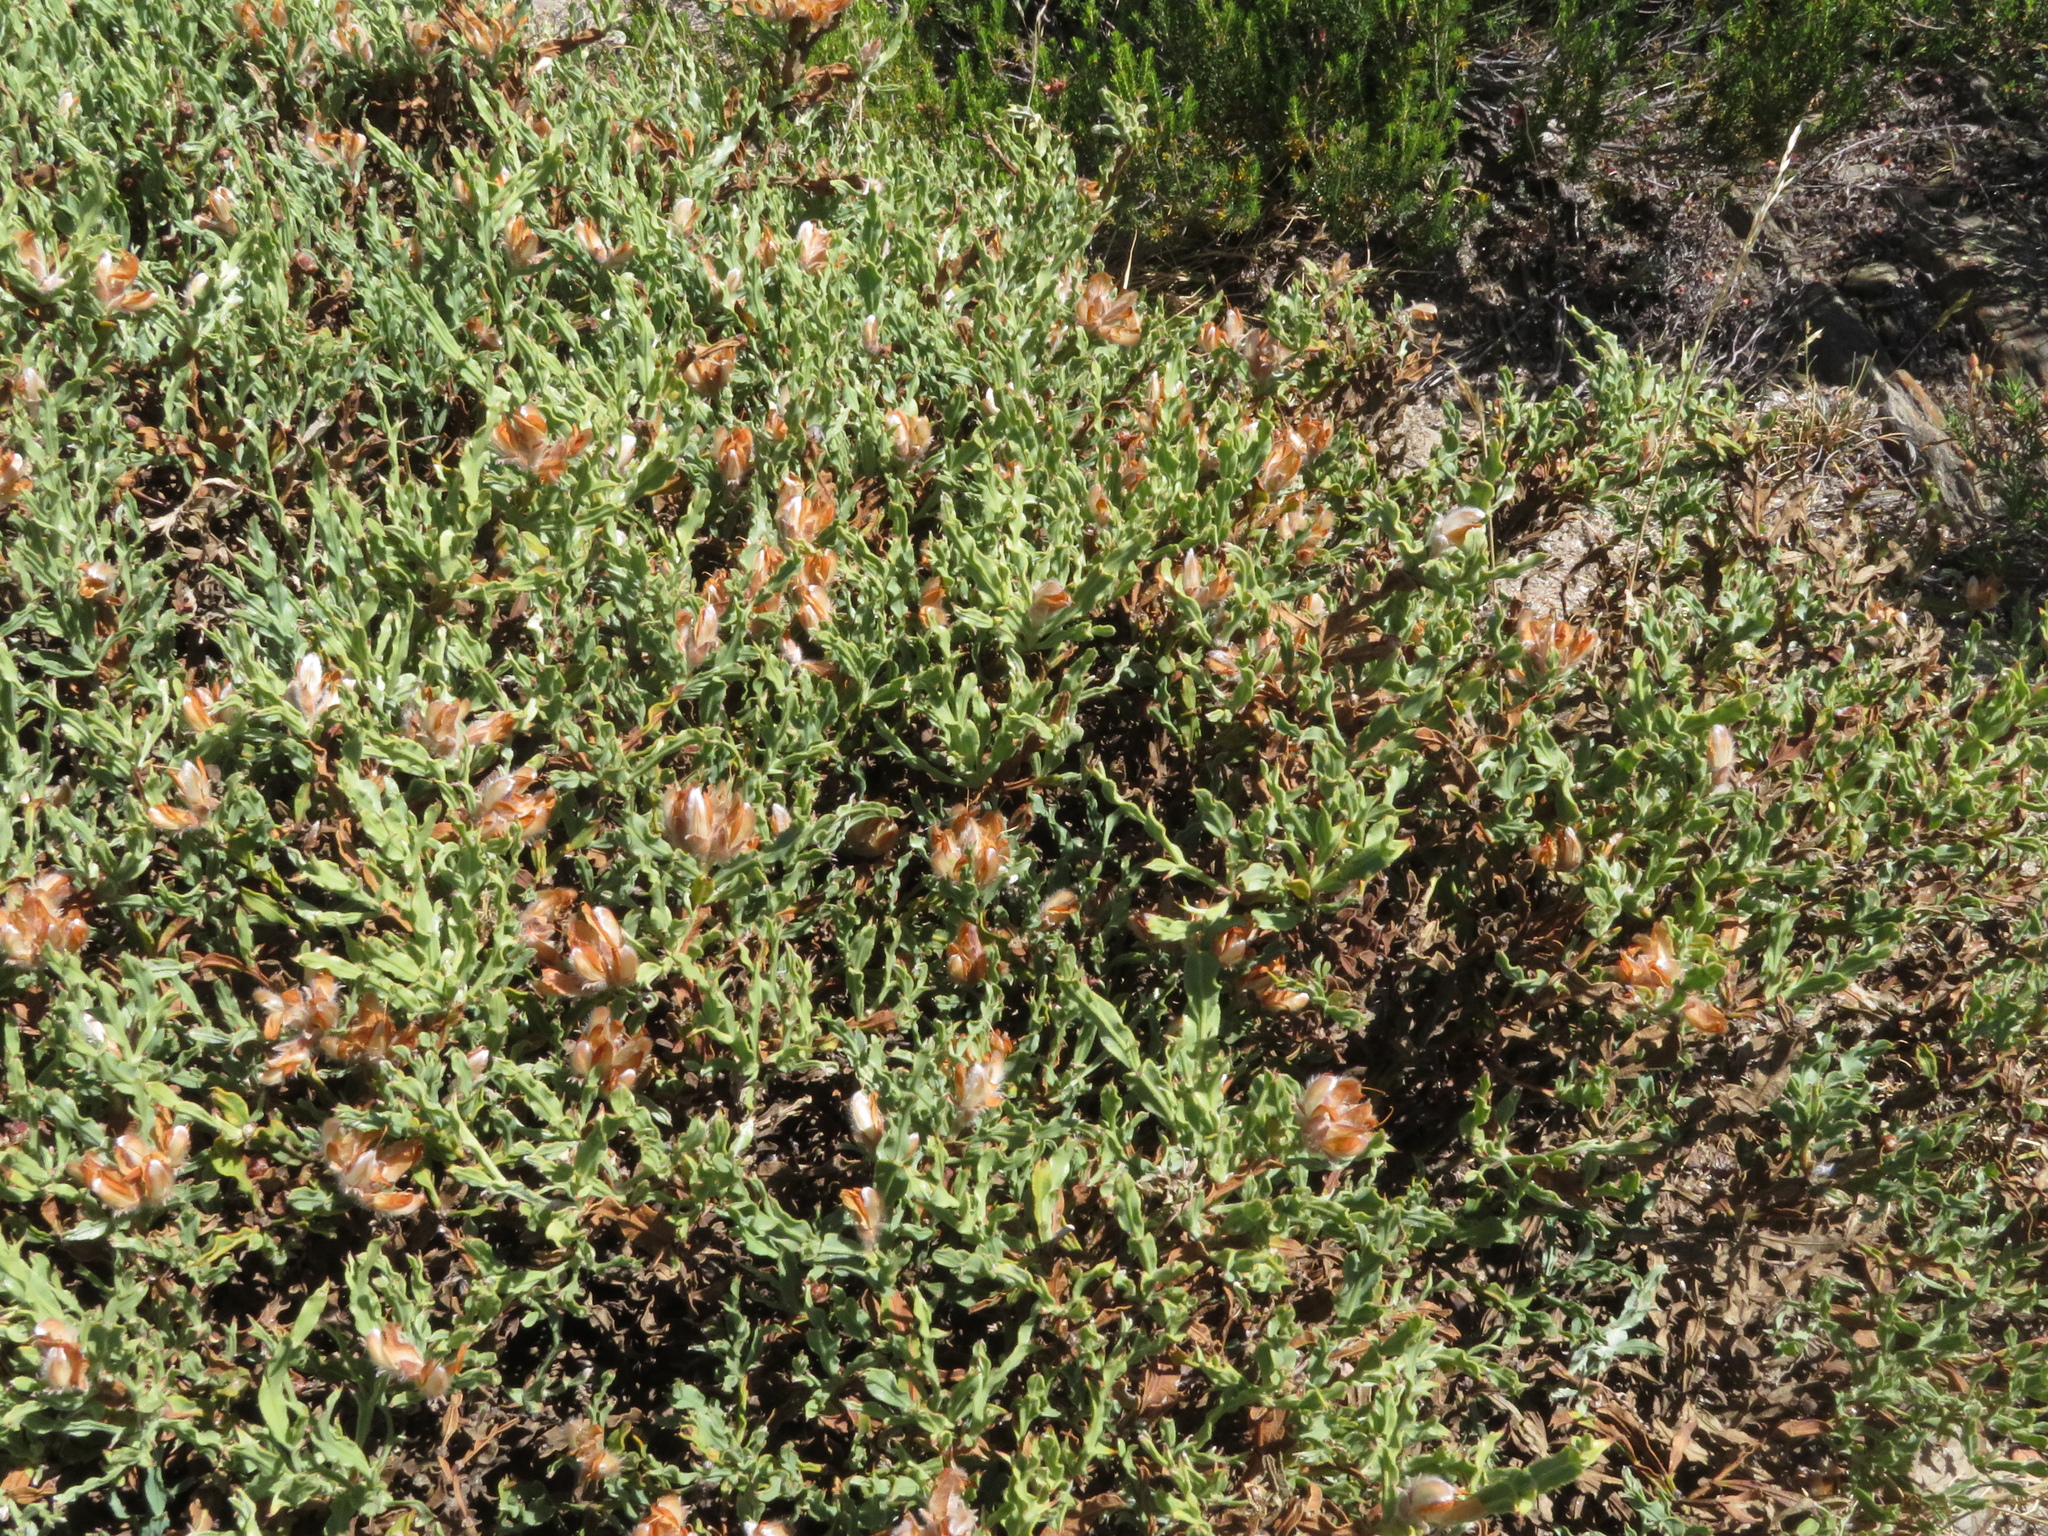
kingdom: Plantae
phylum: Tracheophyta
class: Magnoliopsida
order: Fabales
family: Fabaceae
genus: Genista
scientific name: Genista tridentata
